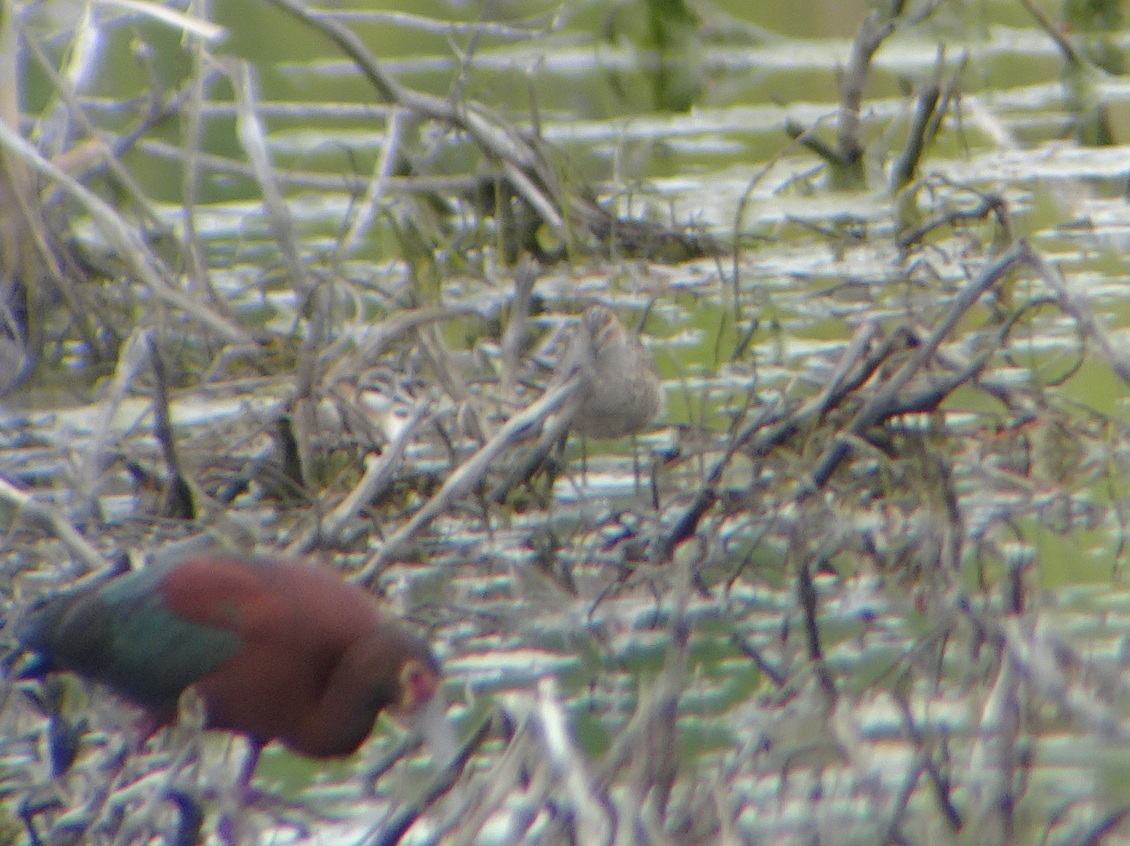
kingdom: Animalia
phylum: Chordata
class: Aves
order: Charadriiformes
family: Scolopacidae
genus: Calidris
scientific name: Calidris himantopus
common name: Stilt sandpiper
